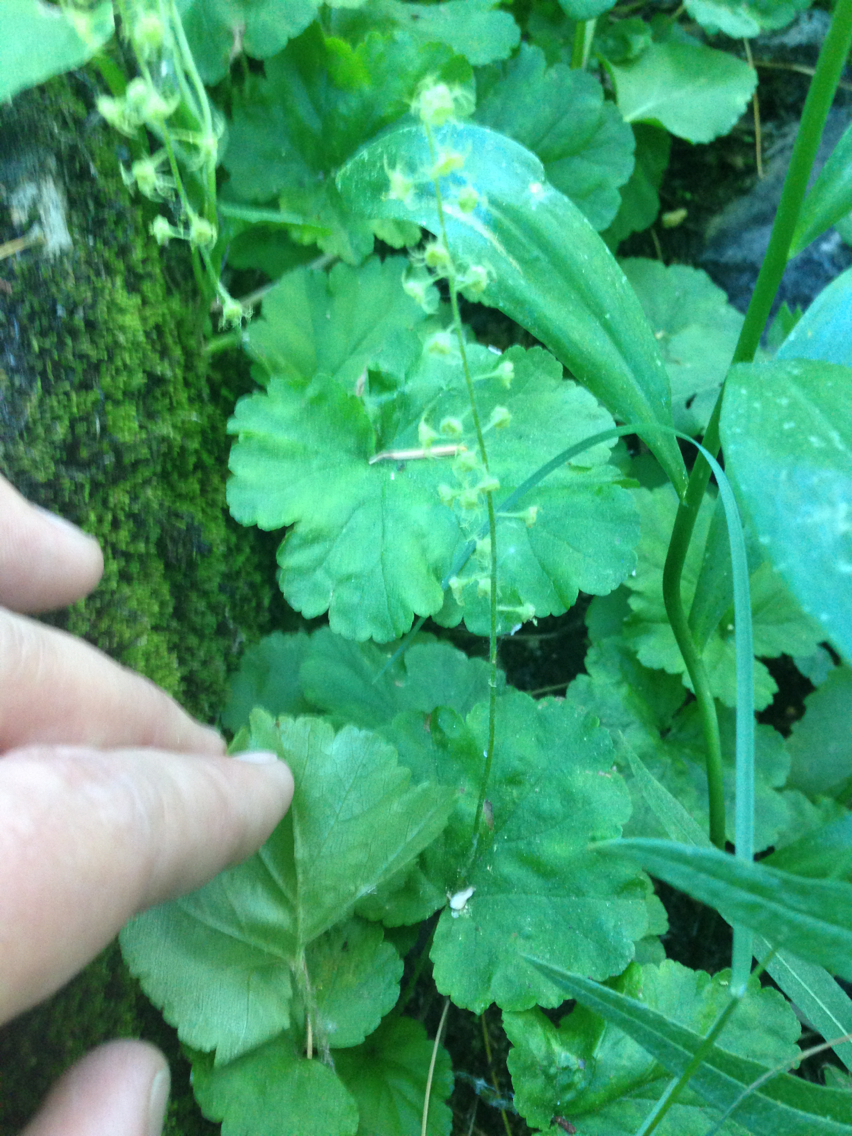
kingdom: Plantae
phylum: Tracheophyta
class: Magnoliopsida
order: Saxifragales
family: Saxifragaceae
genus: Brewerimitella
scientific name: Brewerimitella breweri
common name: Brewer's bishop's-cap
